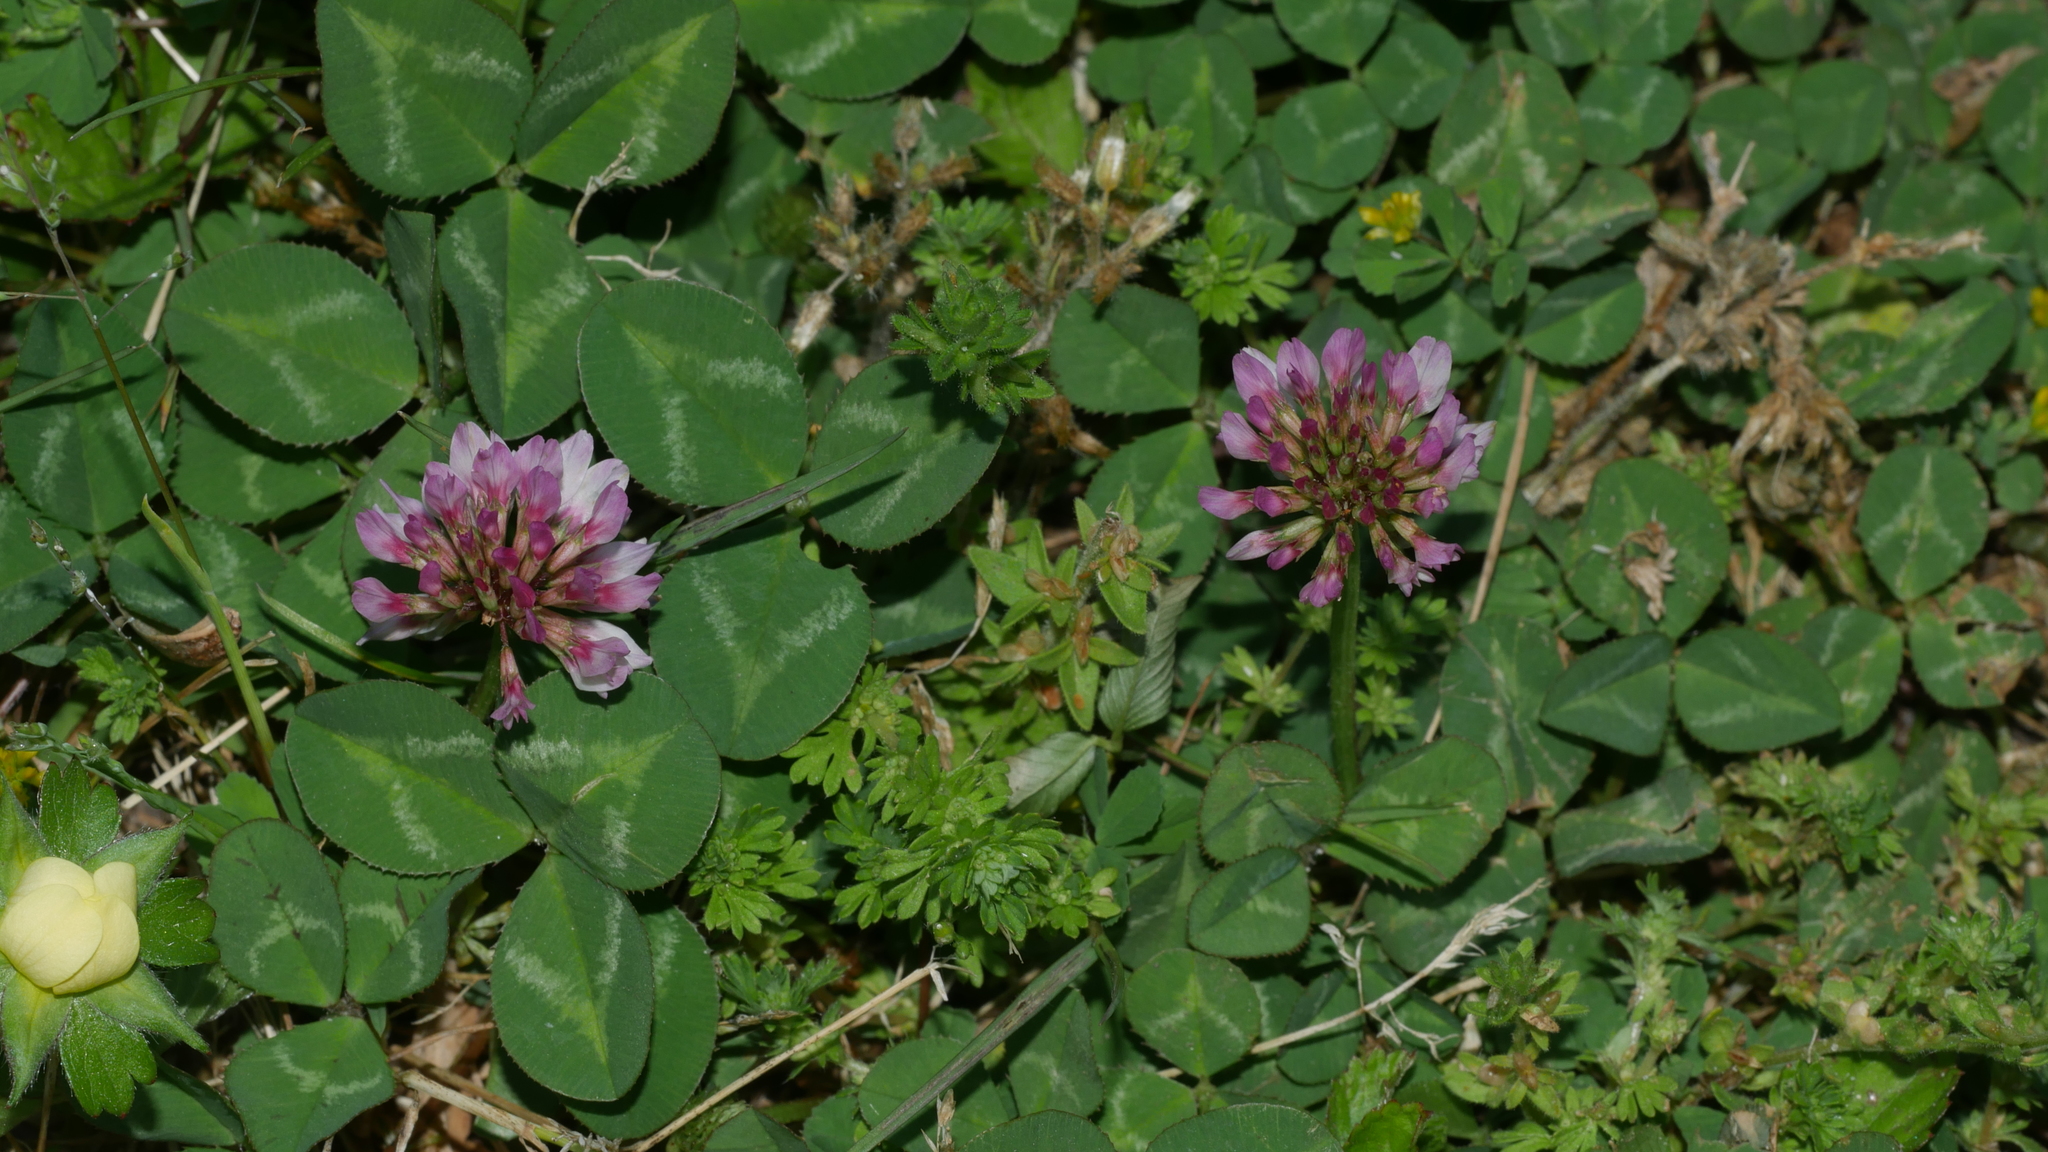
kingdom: Plantae
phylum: Tracheophyta
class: Magnoliopsida
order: Fabales
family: Fabaceae
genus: Trifolium
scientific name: Trifolium repens
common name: White clover
